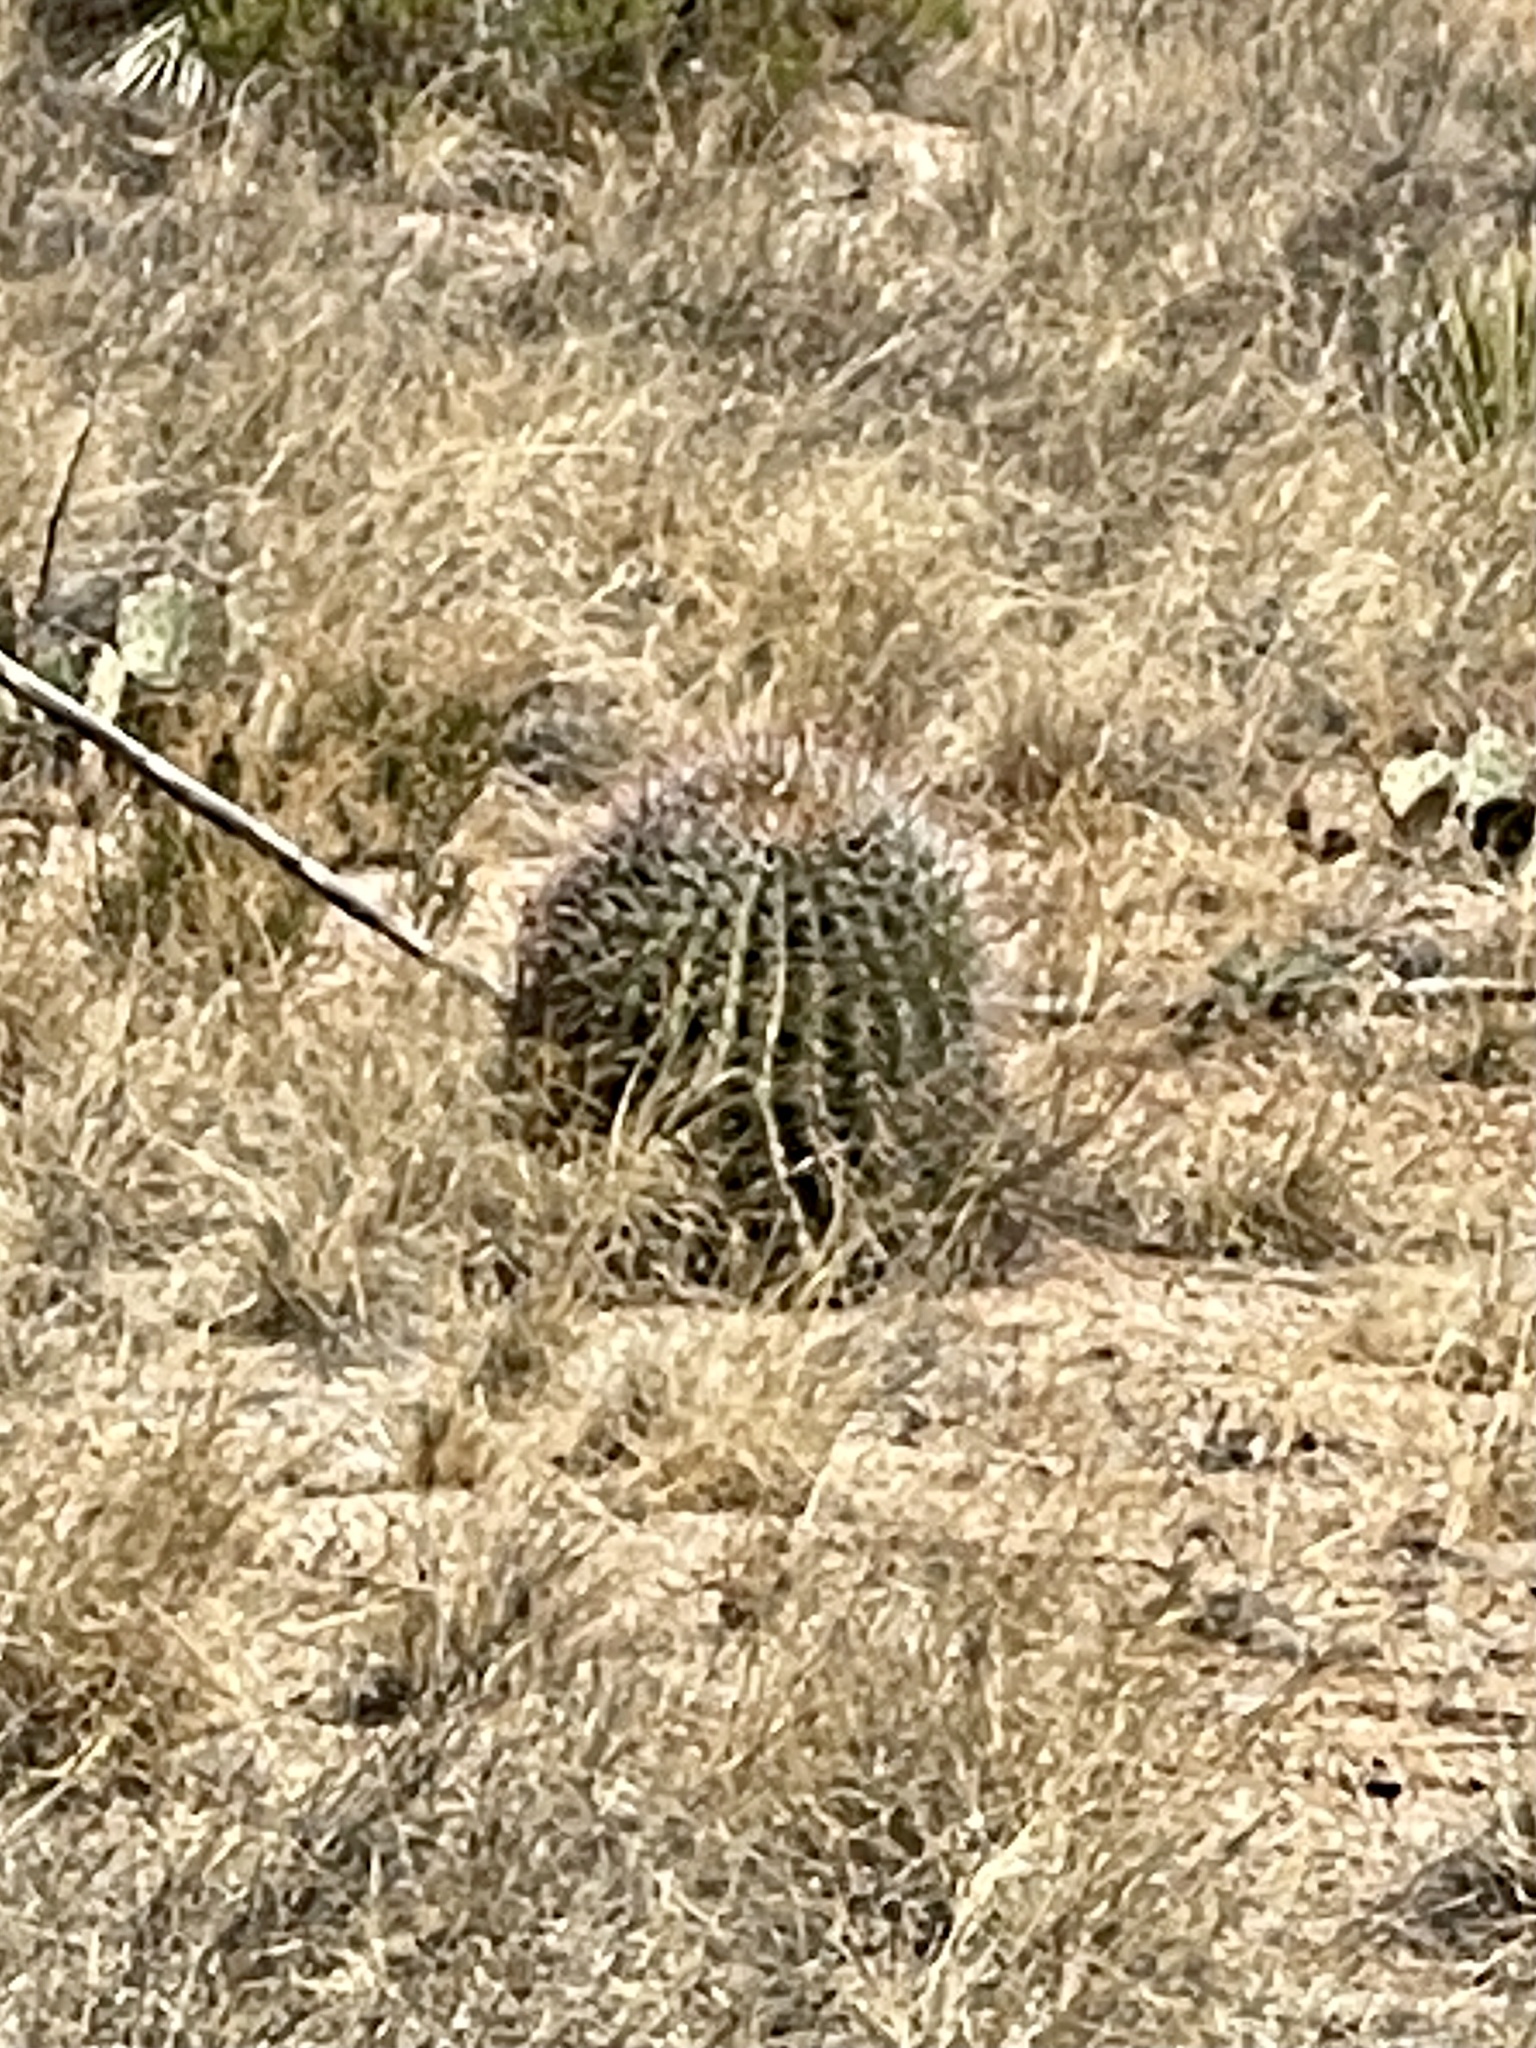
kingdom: Plantae
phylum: Tracheophyta
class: Magnoliopsida
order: Caryophyllales
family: Cactaceae
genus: Ferocactus
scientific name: Ferocactus wislizeni
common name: Candy barrel cactus
